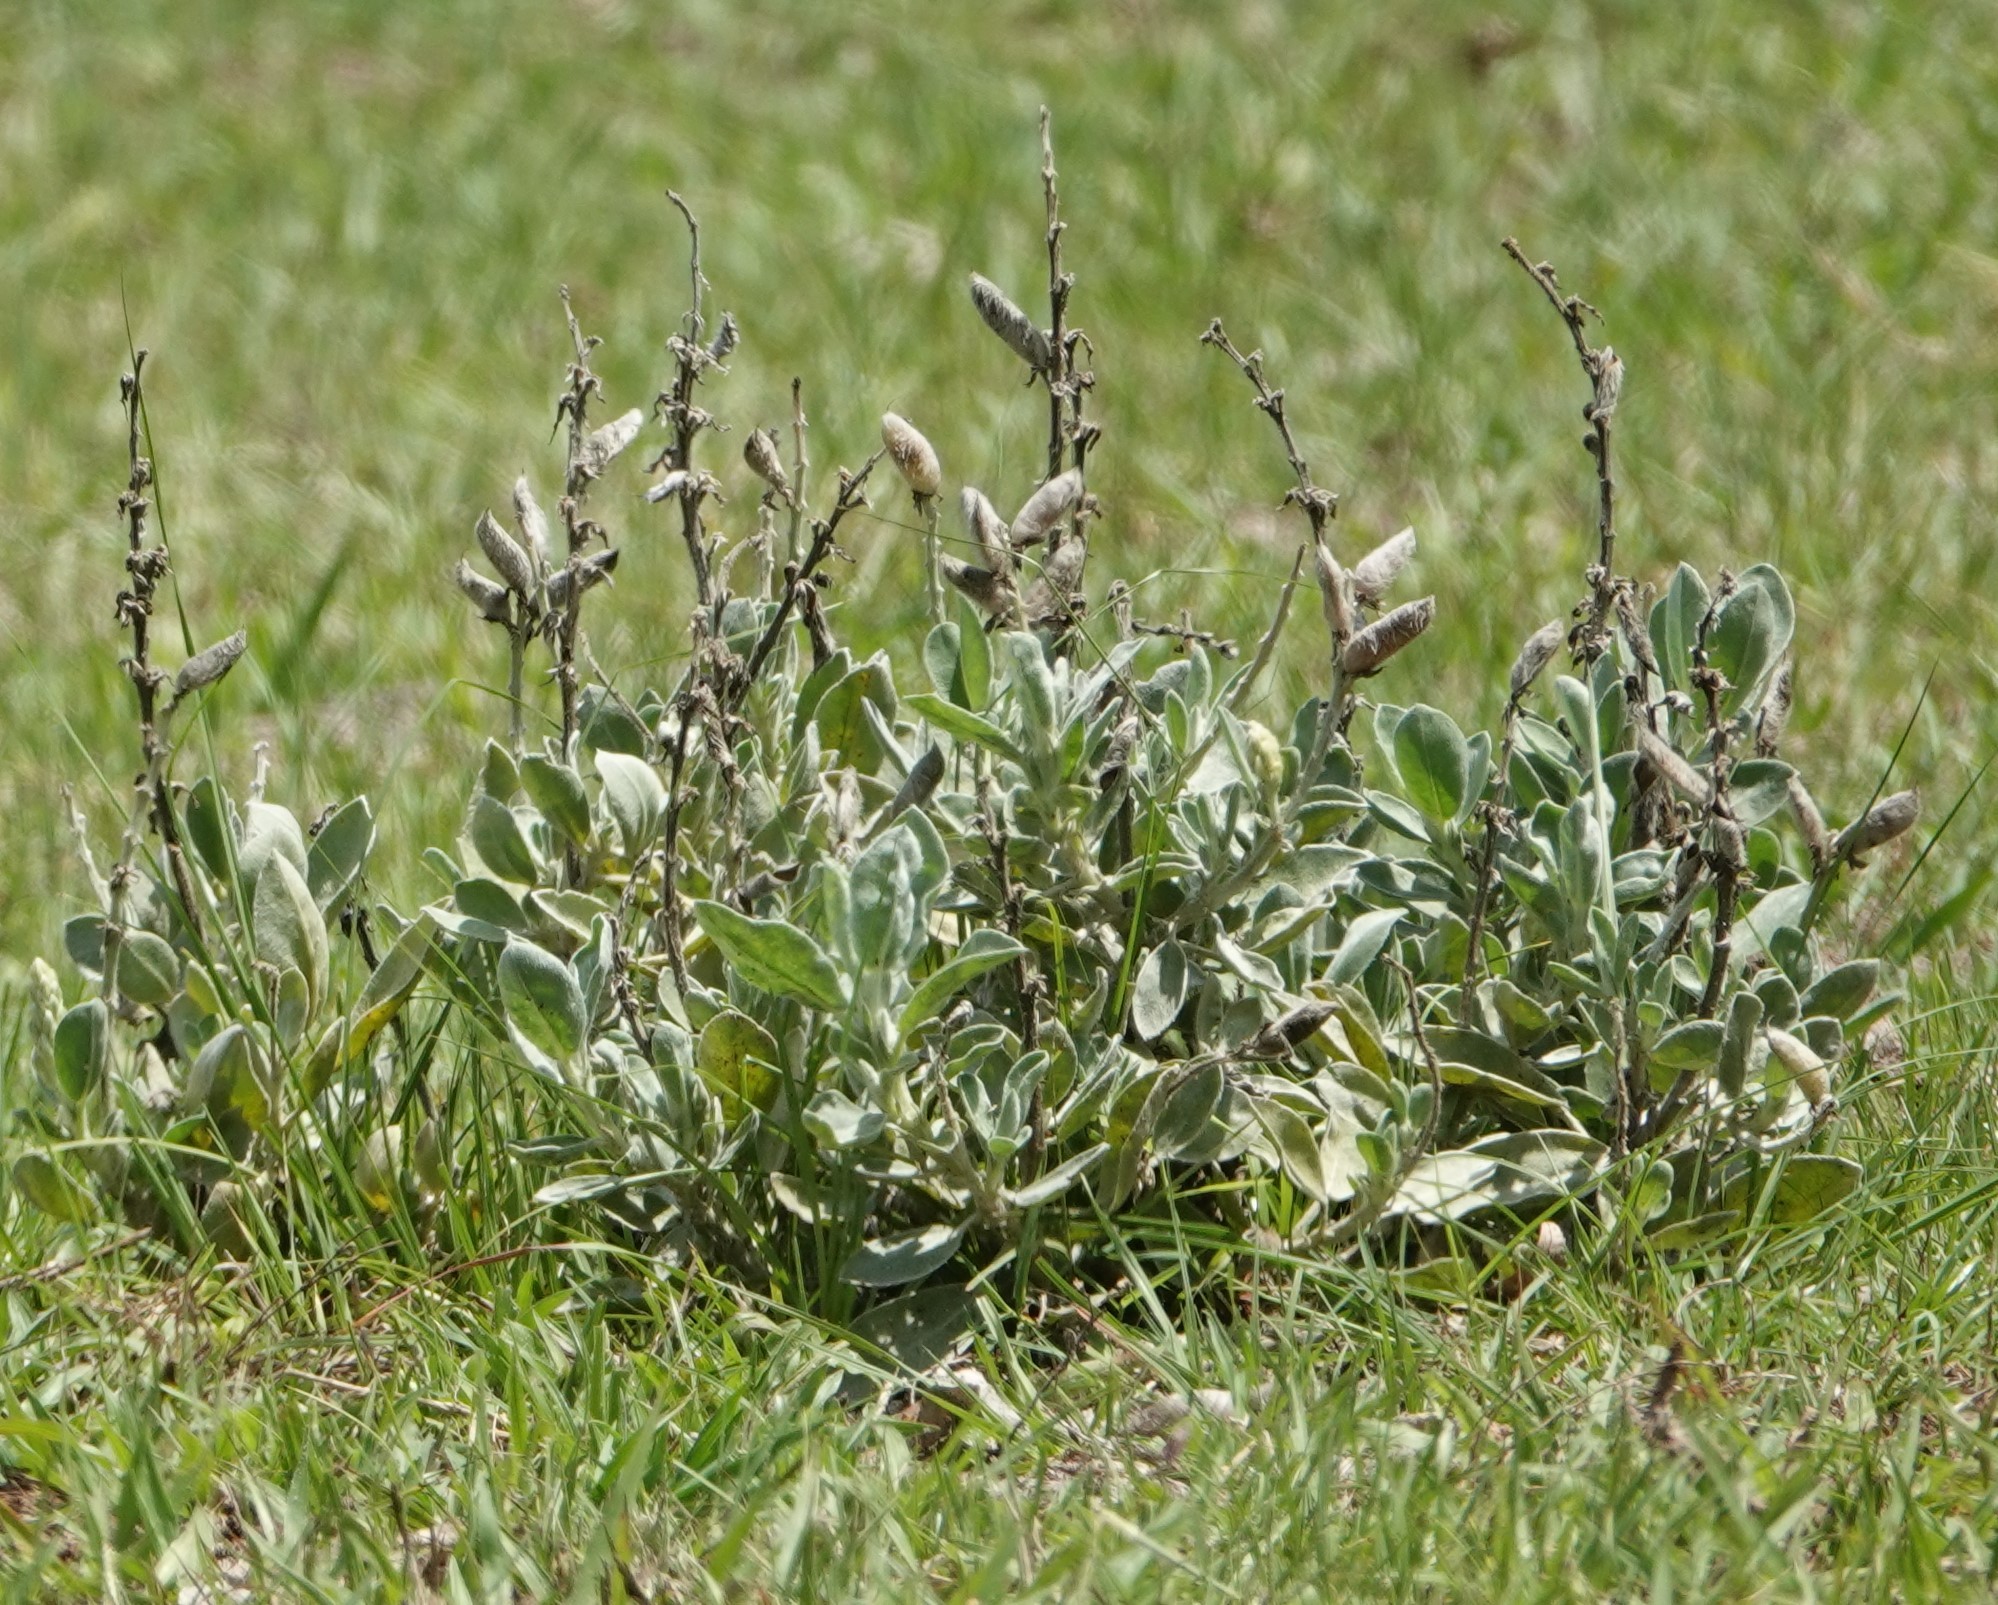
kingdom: Plantae
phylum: Tracheophyta
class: Magnoliopsida
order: Fabales
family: Fabaceae
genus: Lupinus
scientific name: Lupinus
